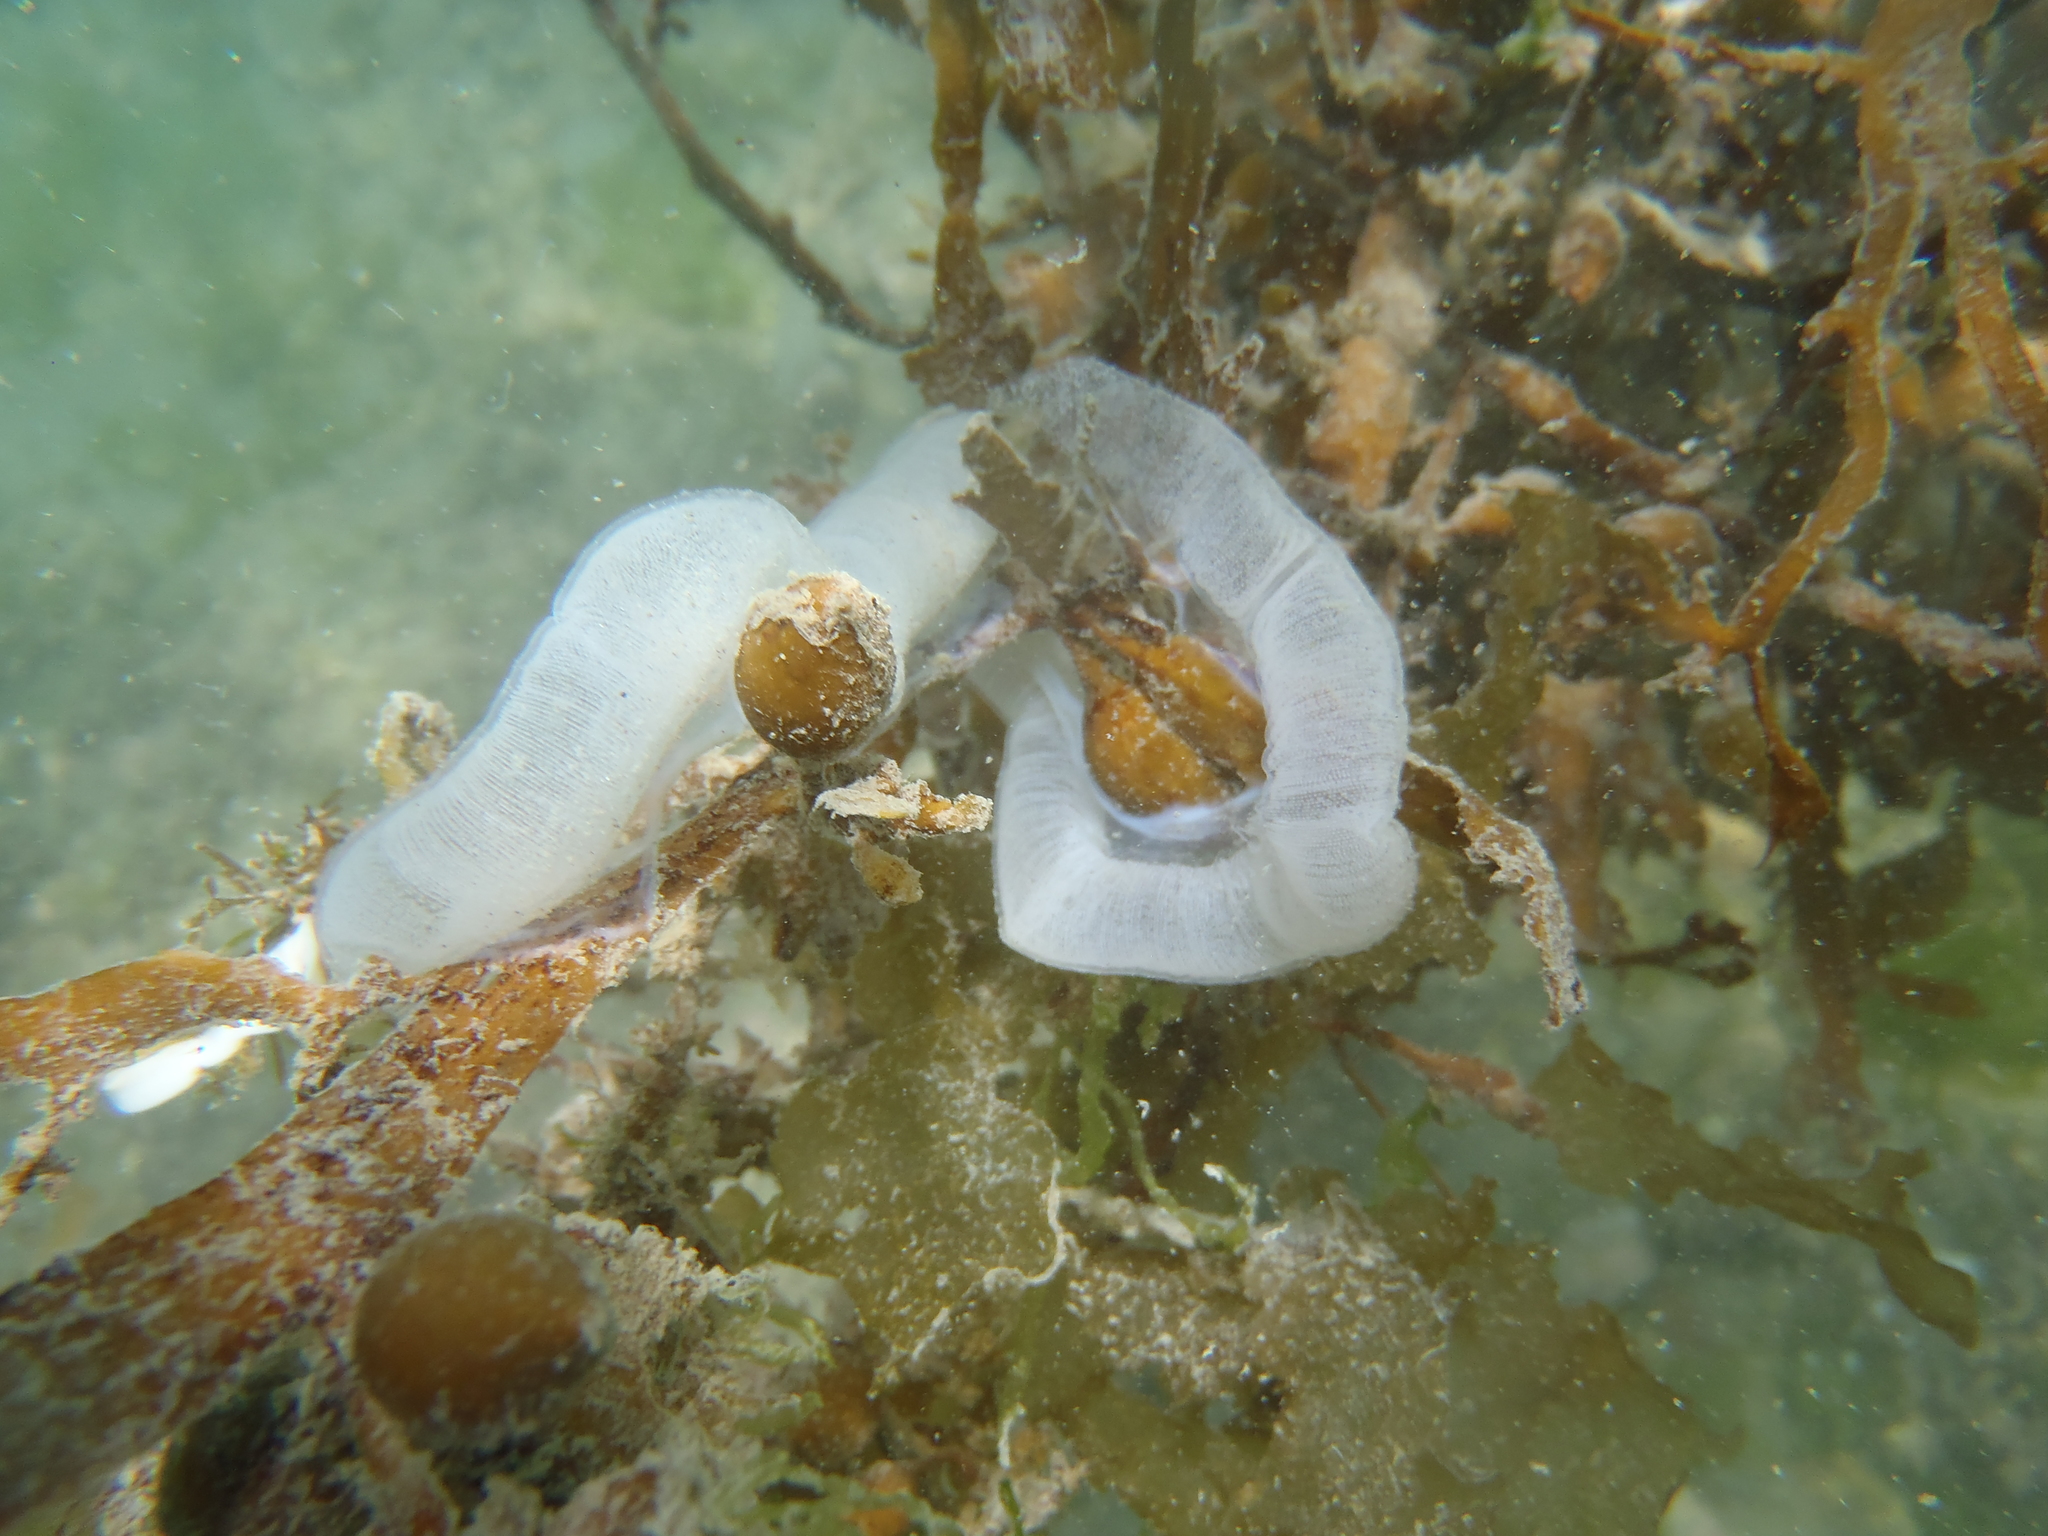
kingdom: Animalia
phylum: Mollusca
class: Gastropoda
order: Pleurobranchida
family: Pleurobranchaeidae
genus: Pleurobranchaea
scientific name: Pleurobranchaea maculata
